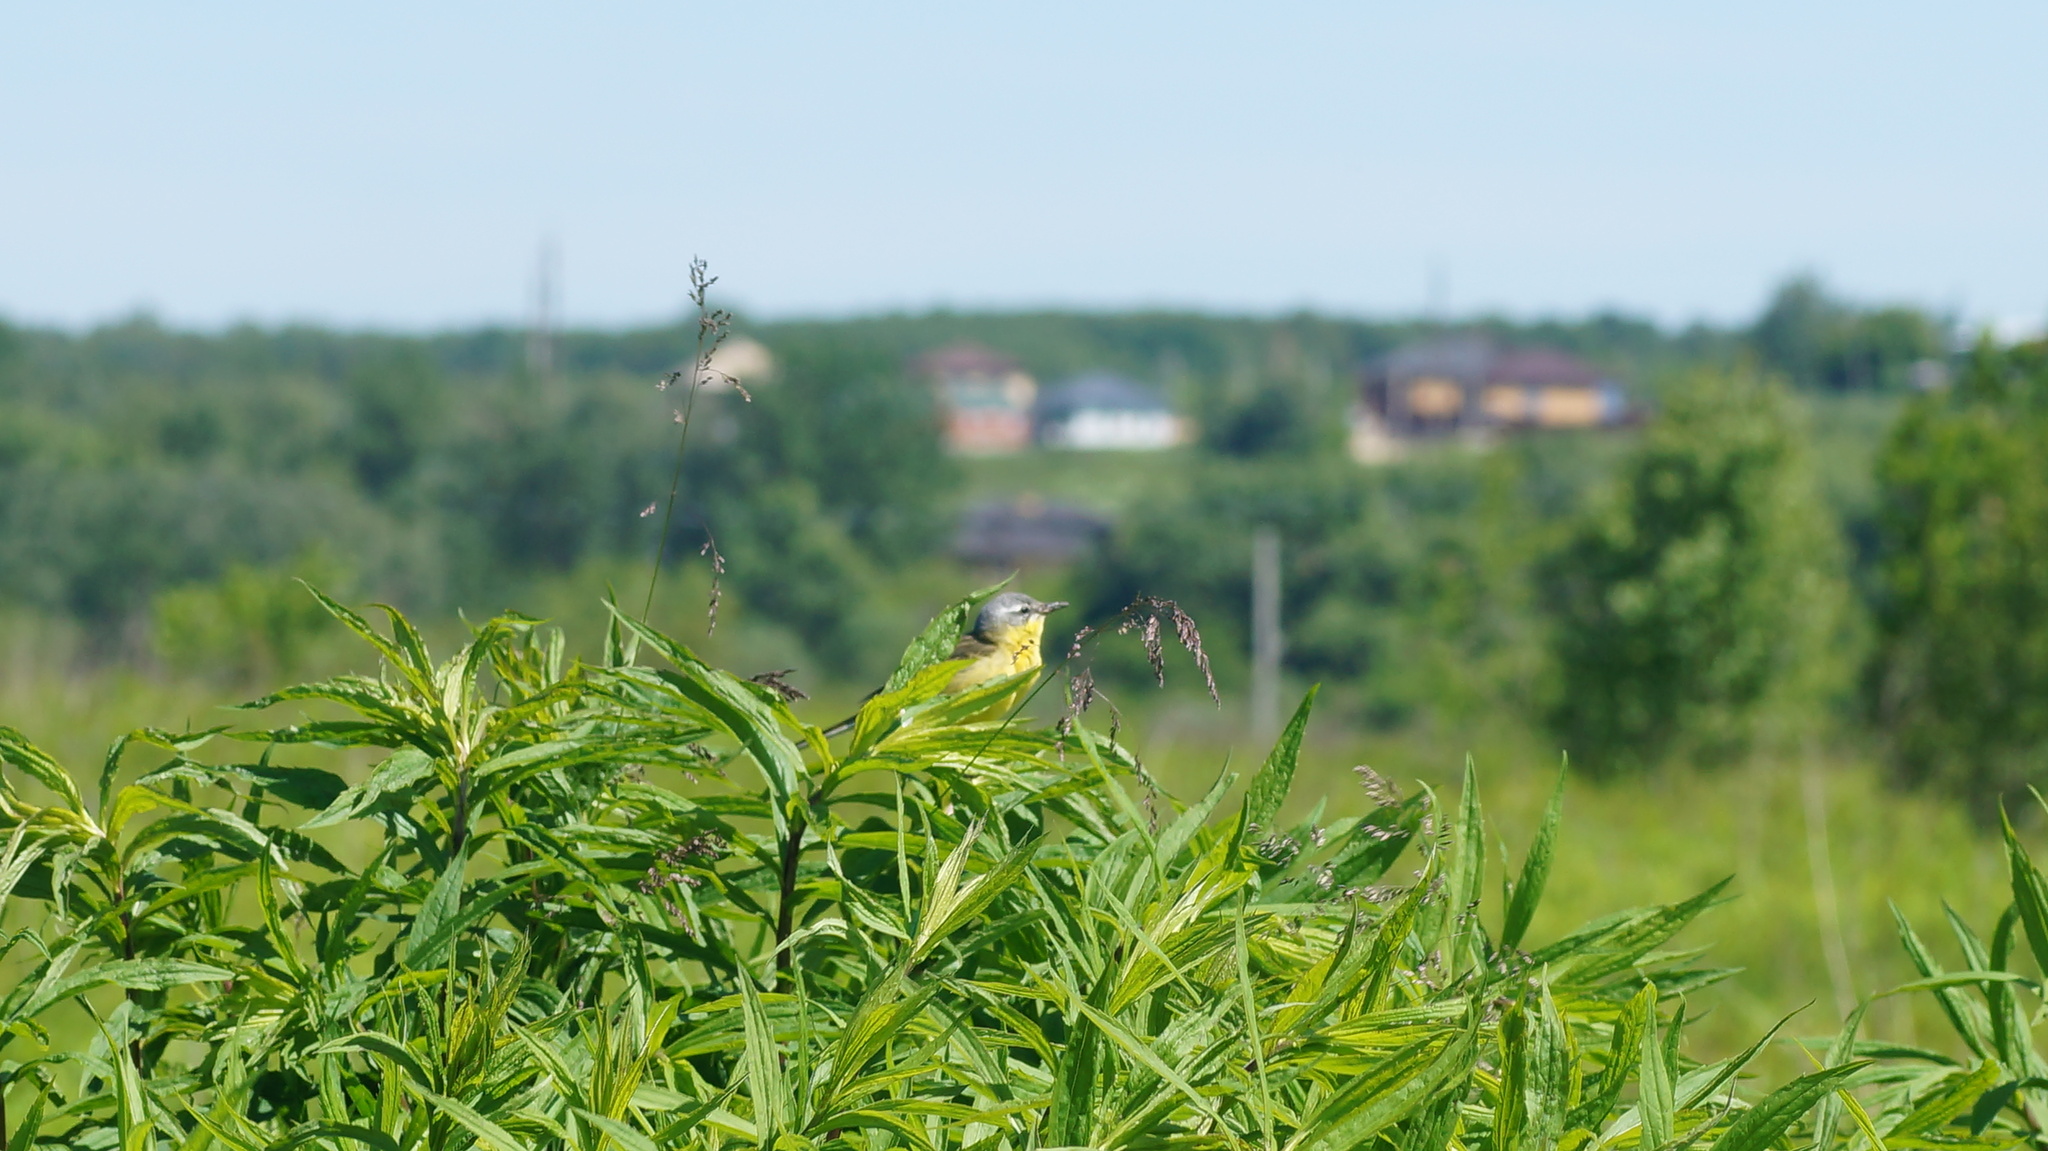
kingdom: Animalia
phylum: Chordata
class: Aves
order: Passeriformes
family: Motacillidae
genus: Motacilla
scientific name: Motacilla flava
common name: Western yellow wagtail
